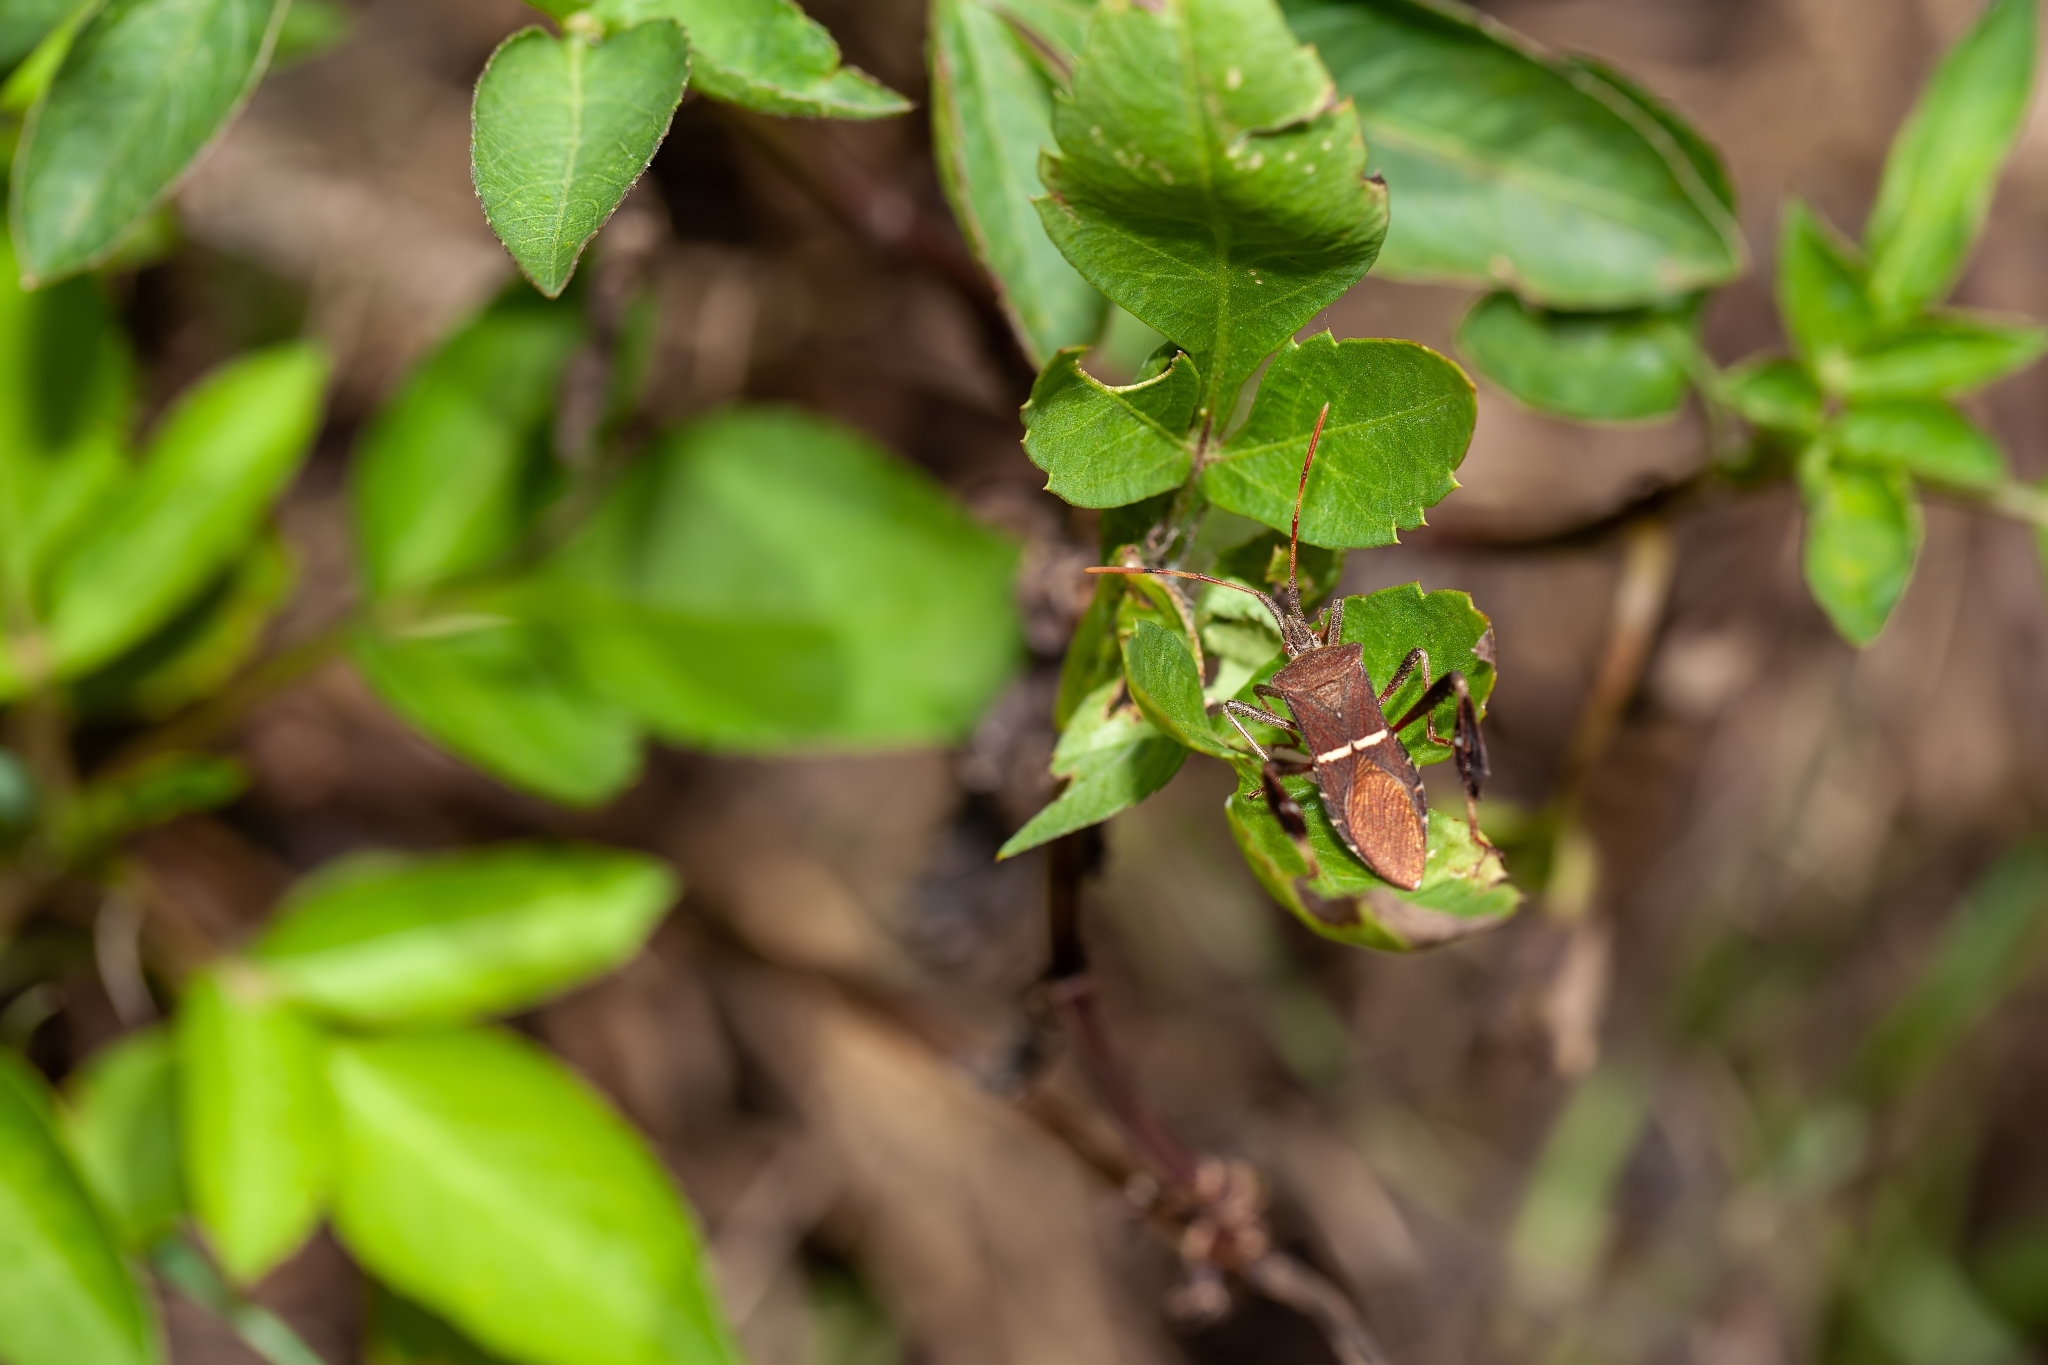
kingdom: Animalia
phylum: Arthropoda
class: Insecta
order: Hemiptera
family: Coreidae
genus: Leptoglossus
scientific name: Leptoglossus phyllopus
